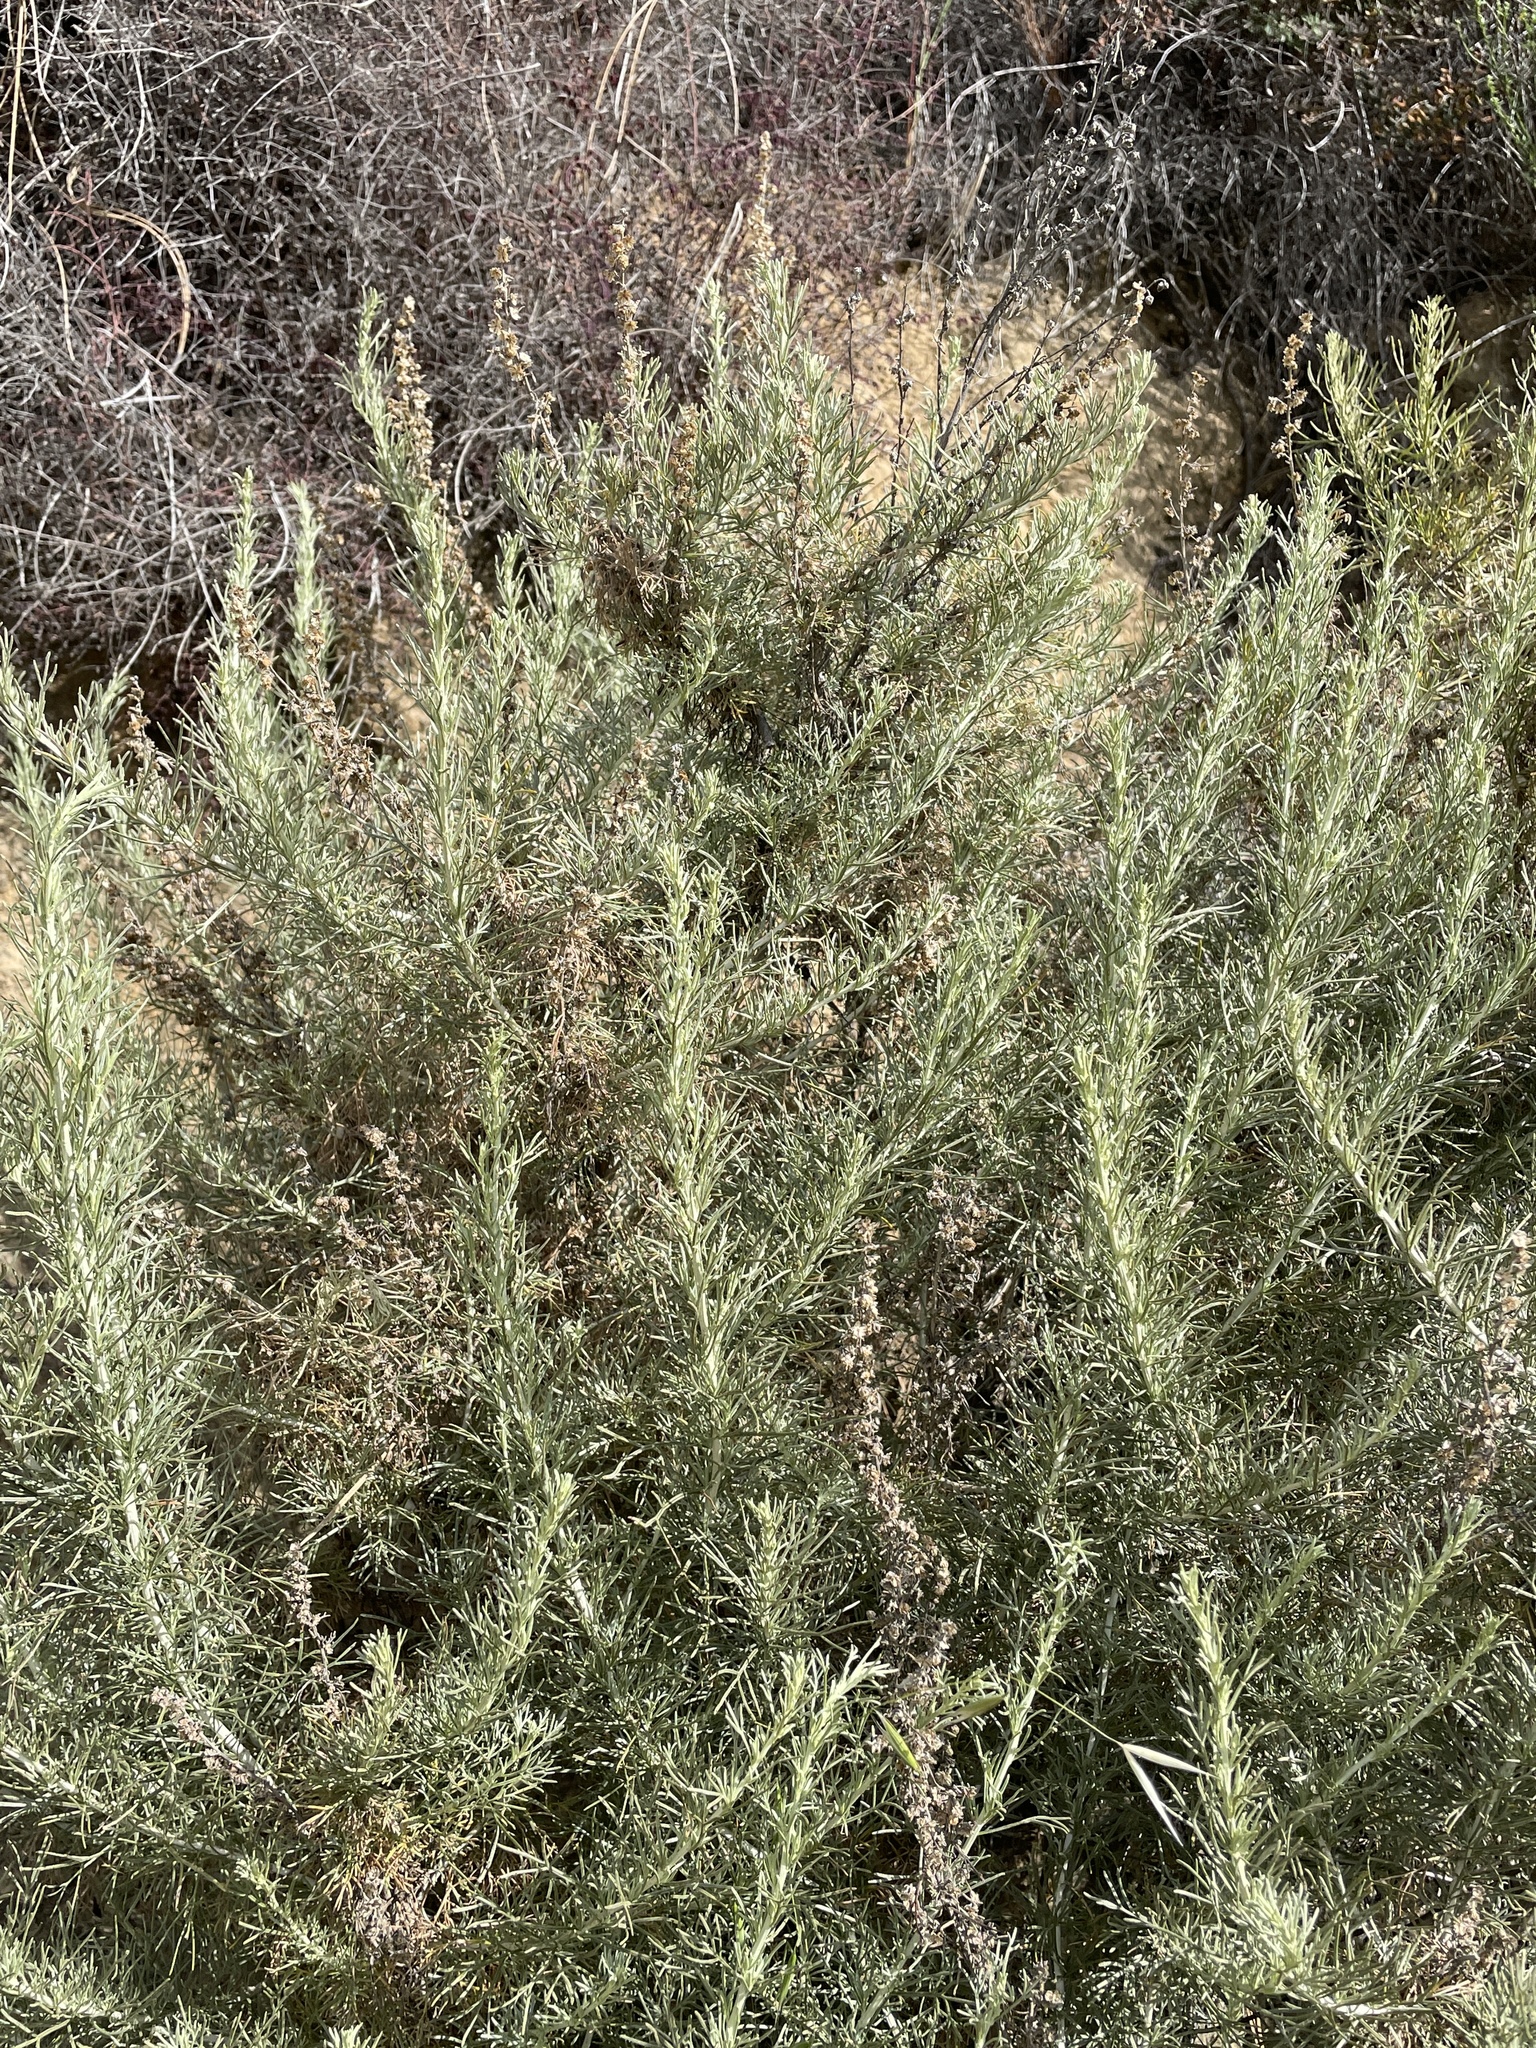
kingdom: Plantae
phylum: Tracheophyta
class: Magnoliopsida
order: Asterales
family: Asteraceae
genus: Artemisia
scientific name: Artemisia californica
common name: California sagebrush
